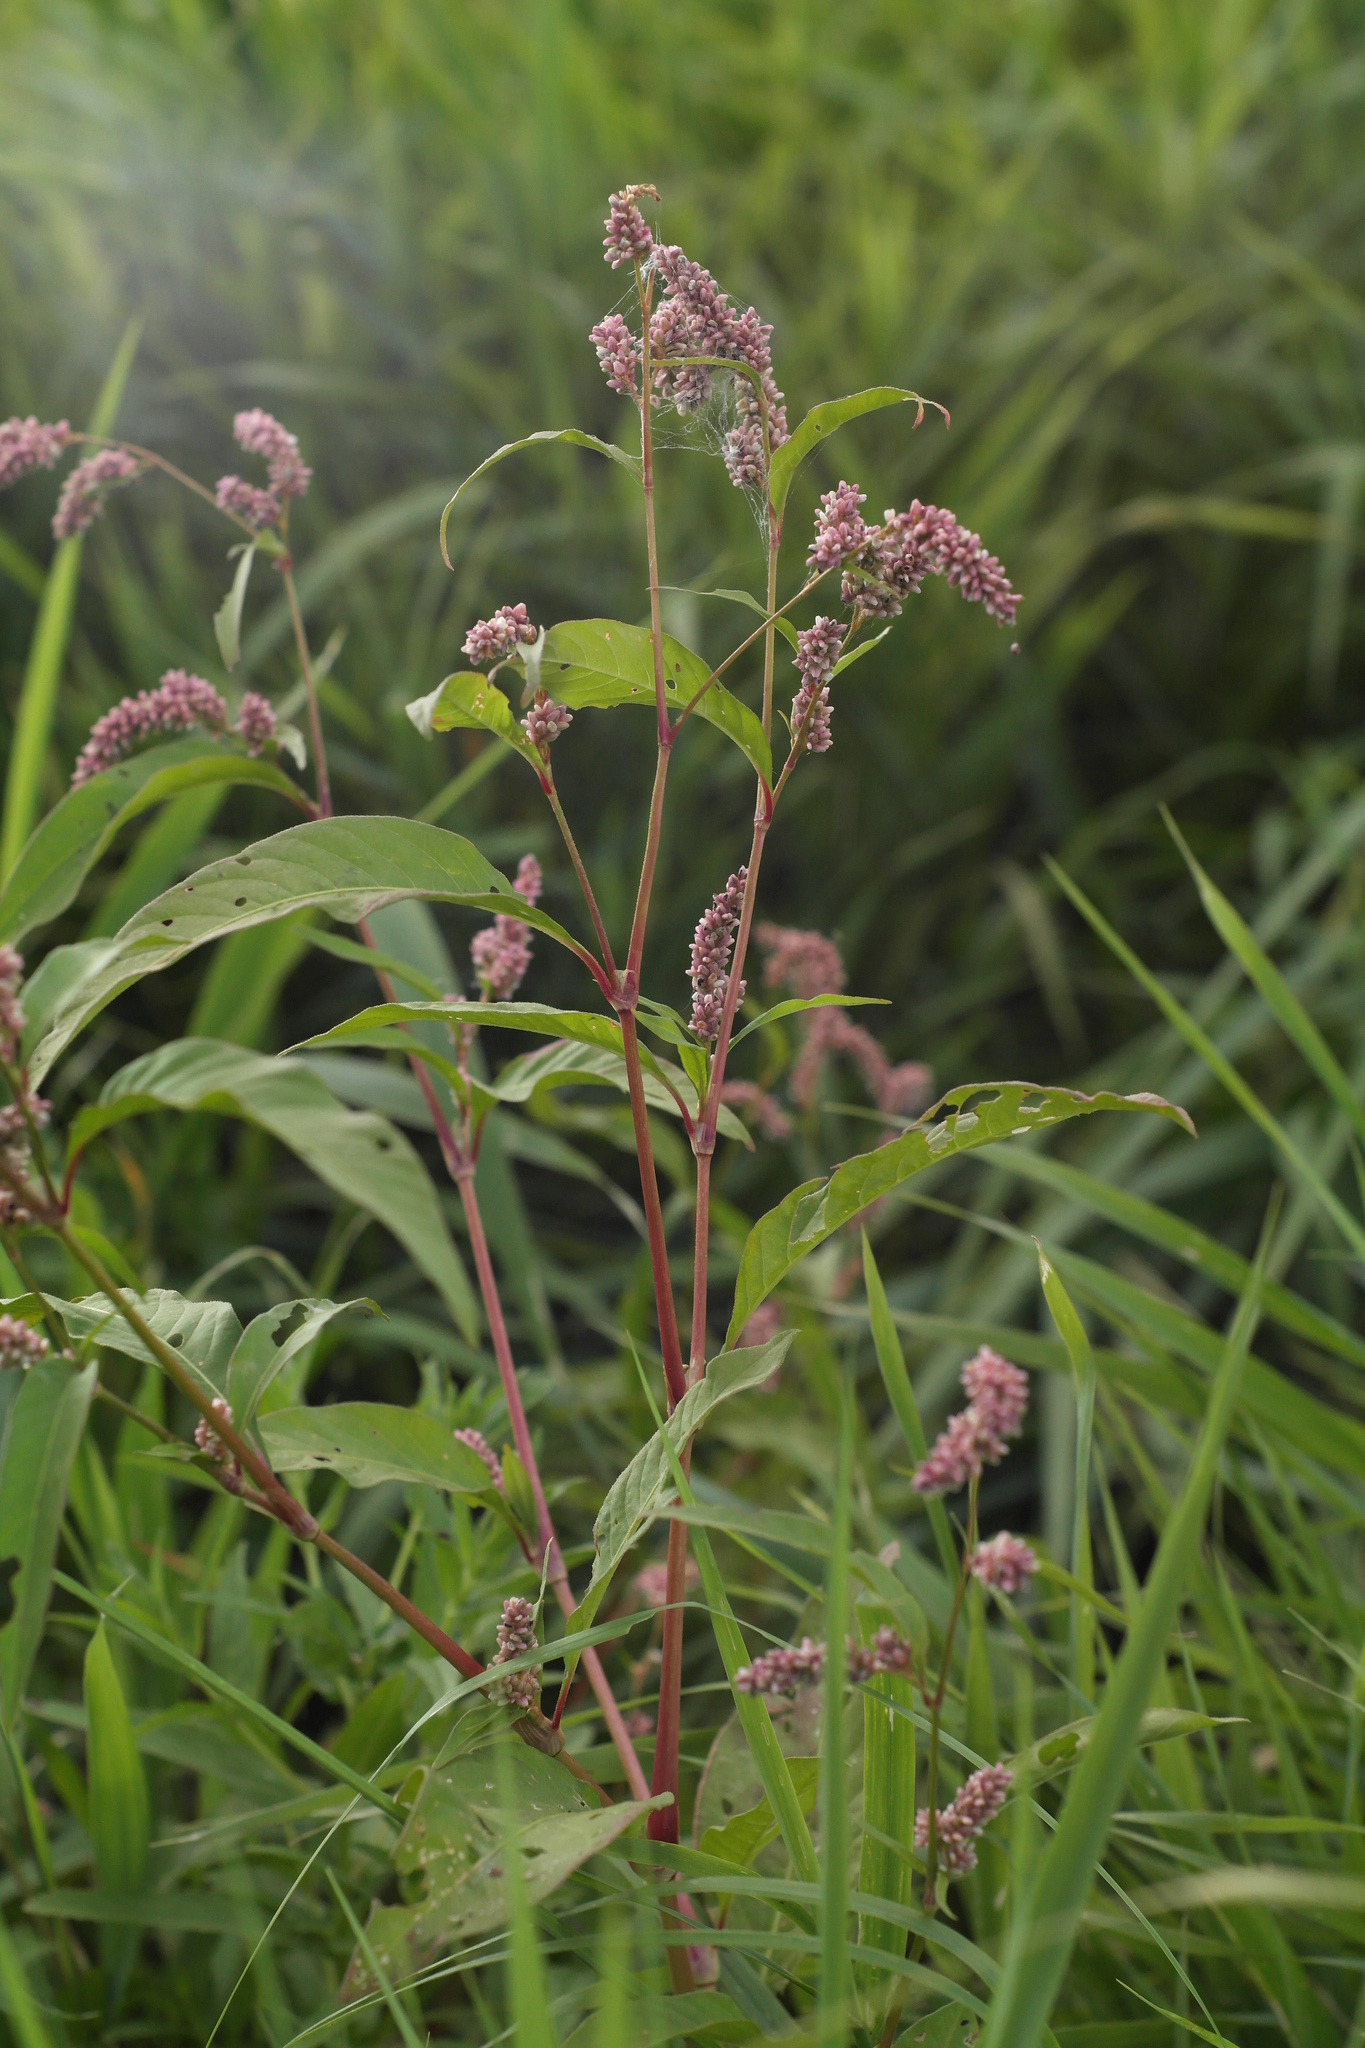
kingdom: Plantae
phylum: Tracheophyta
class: Magnoliopsida
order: Caryophyllales
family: Polygonaceae
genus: Persicaria
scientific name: Persicaria lapathifolia
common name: Curlytop knotweed
